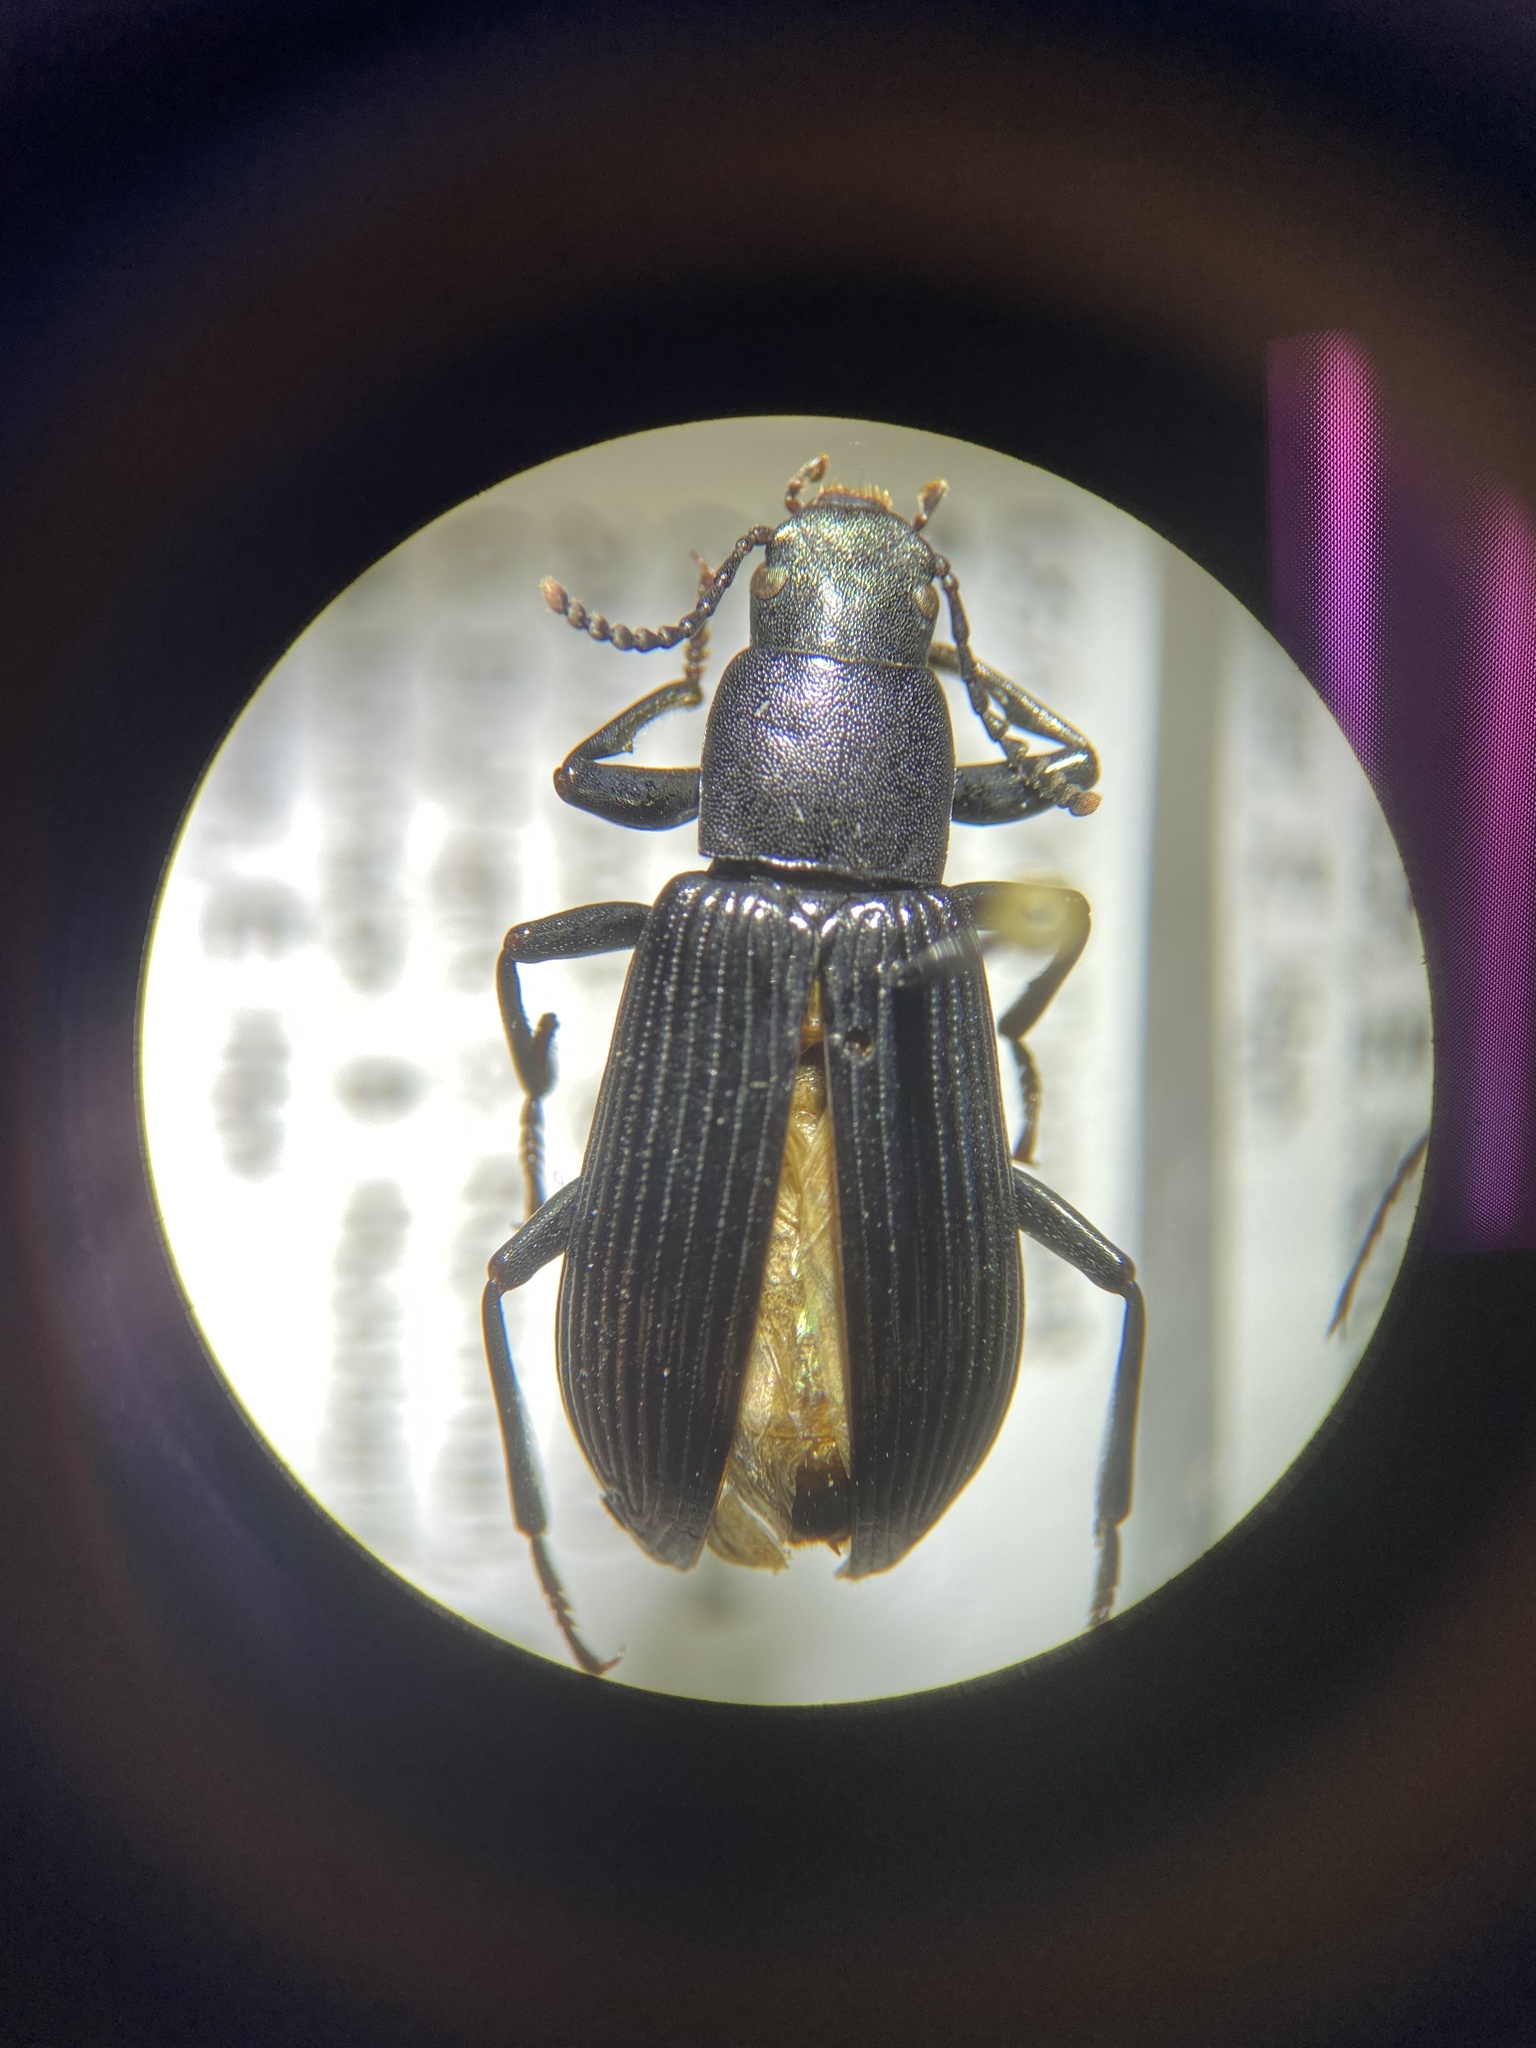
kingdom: Animalia
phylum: Arthropoda
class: Insecta
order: Coleoptera
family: Tenebrionidae
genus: Xylopinus
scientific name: Xylopinus saperdoides
